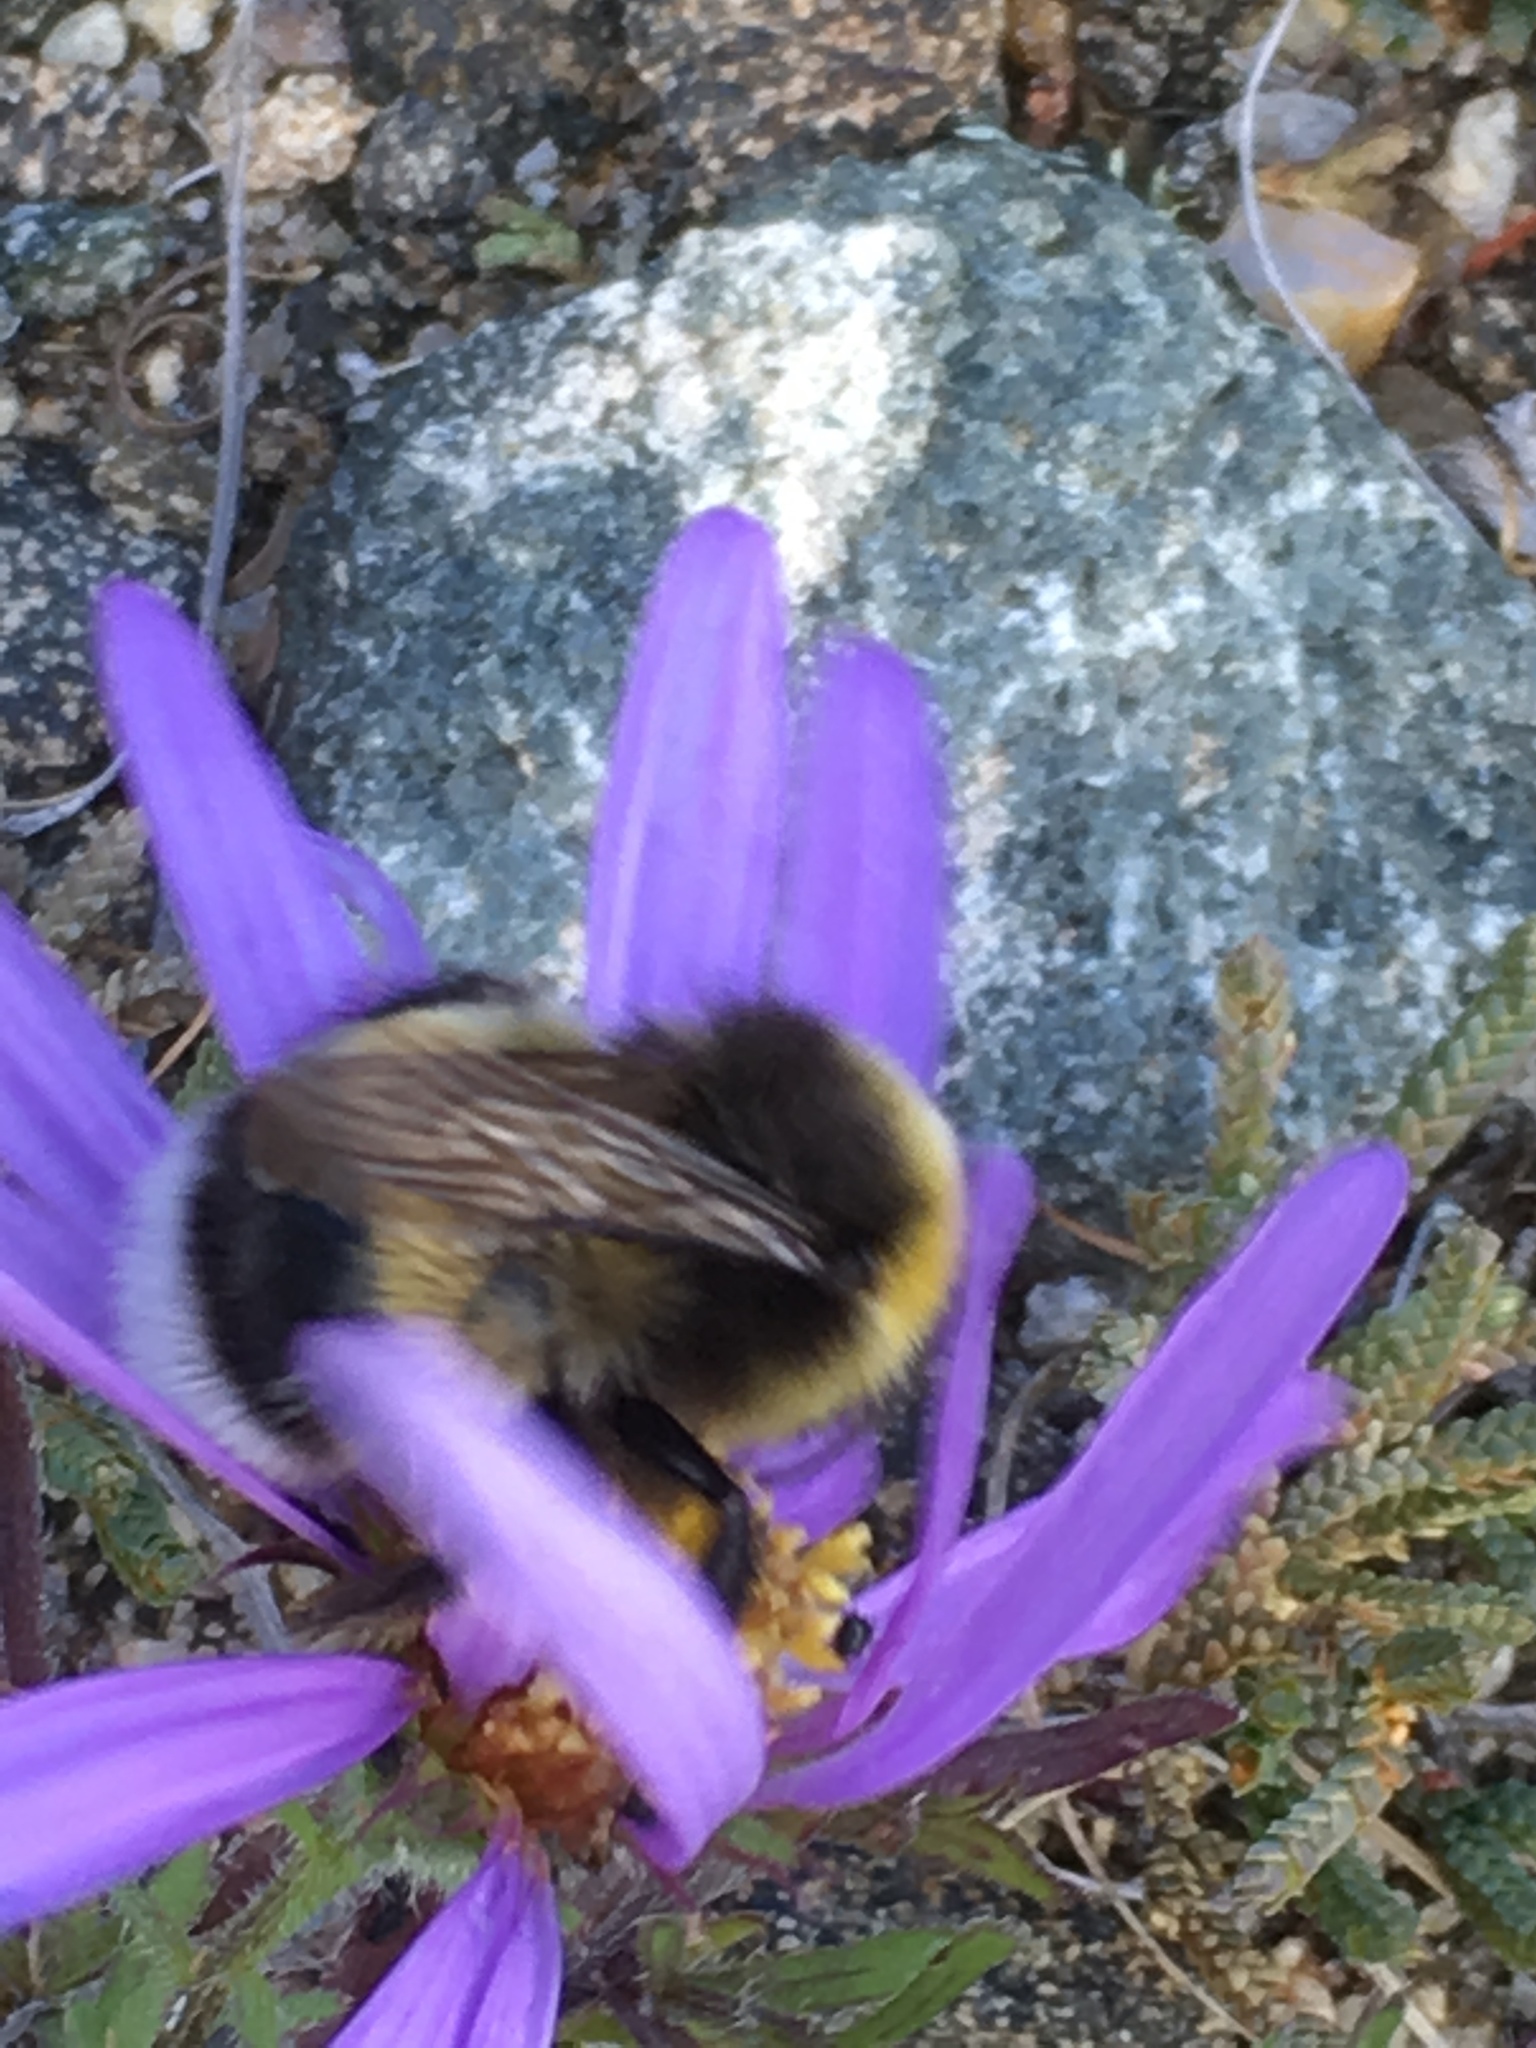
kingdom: Animalia
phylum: Arthropoda
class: Insecta
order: Hymenoptera
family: Apidae
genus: Bombus
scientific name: Bombus lucorum
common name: White-tailed bumblebee
